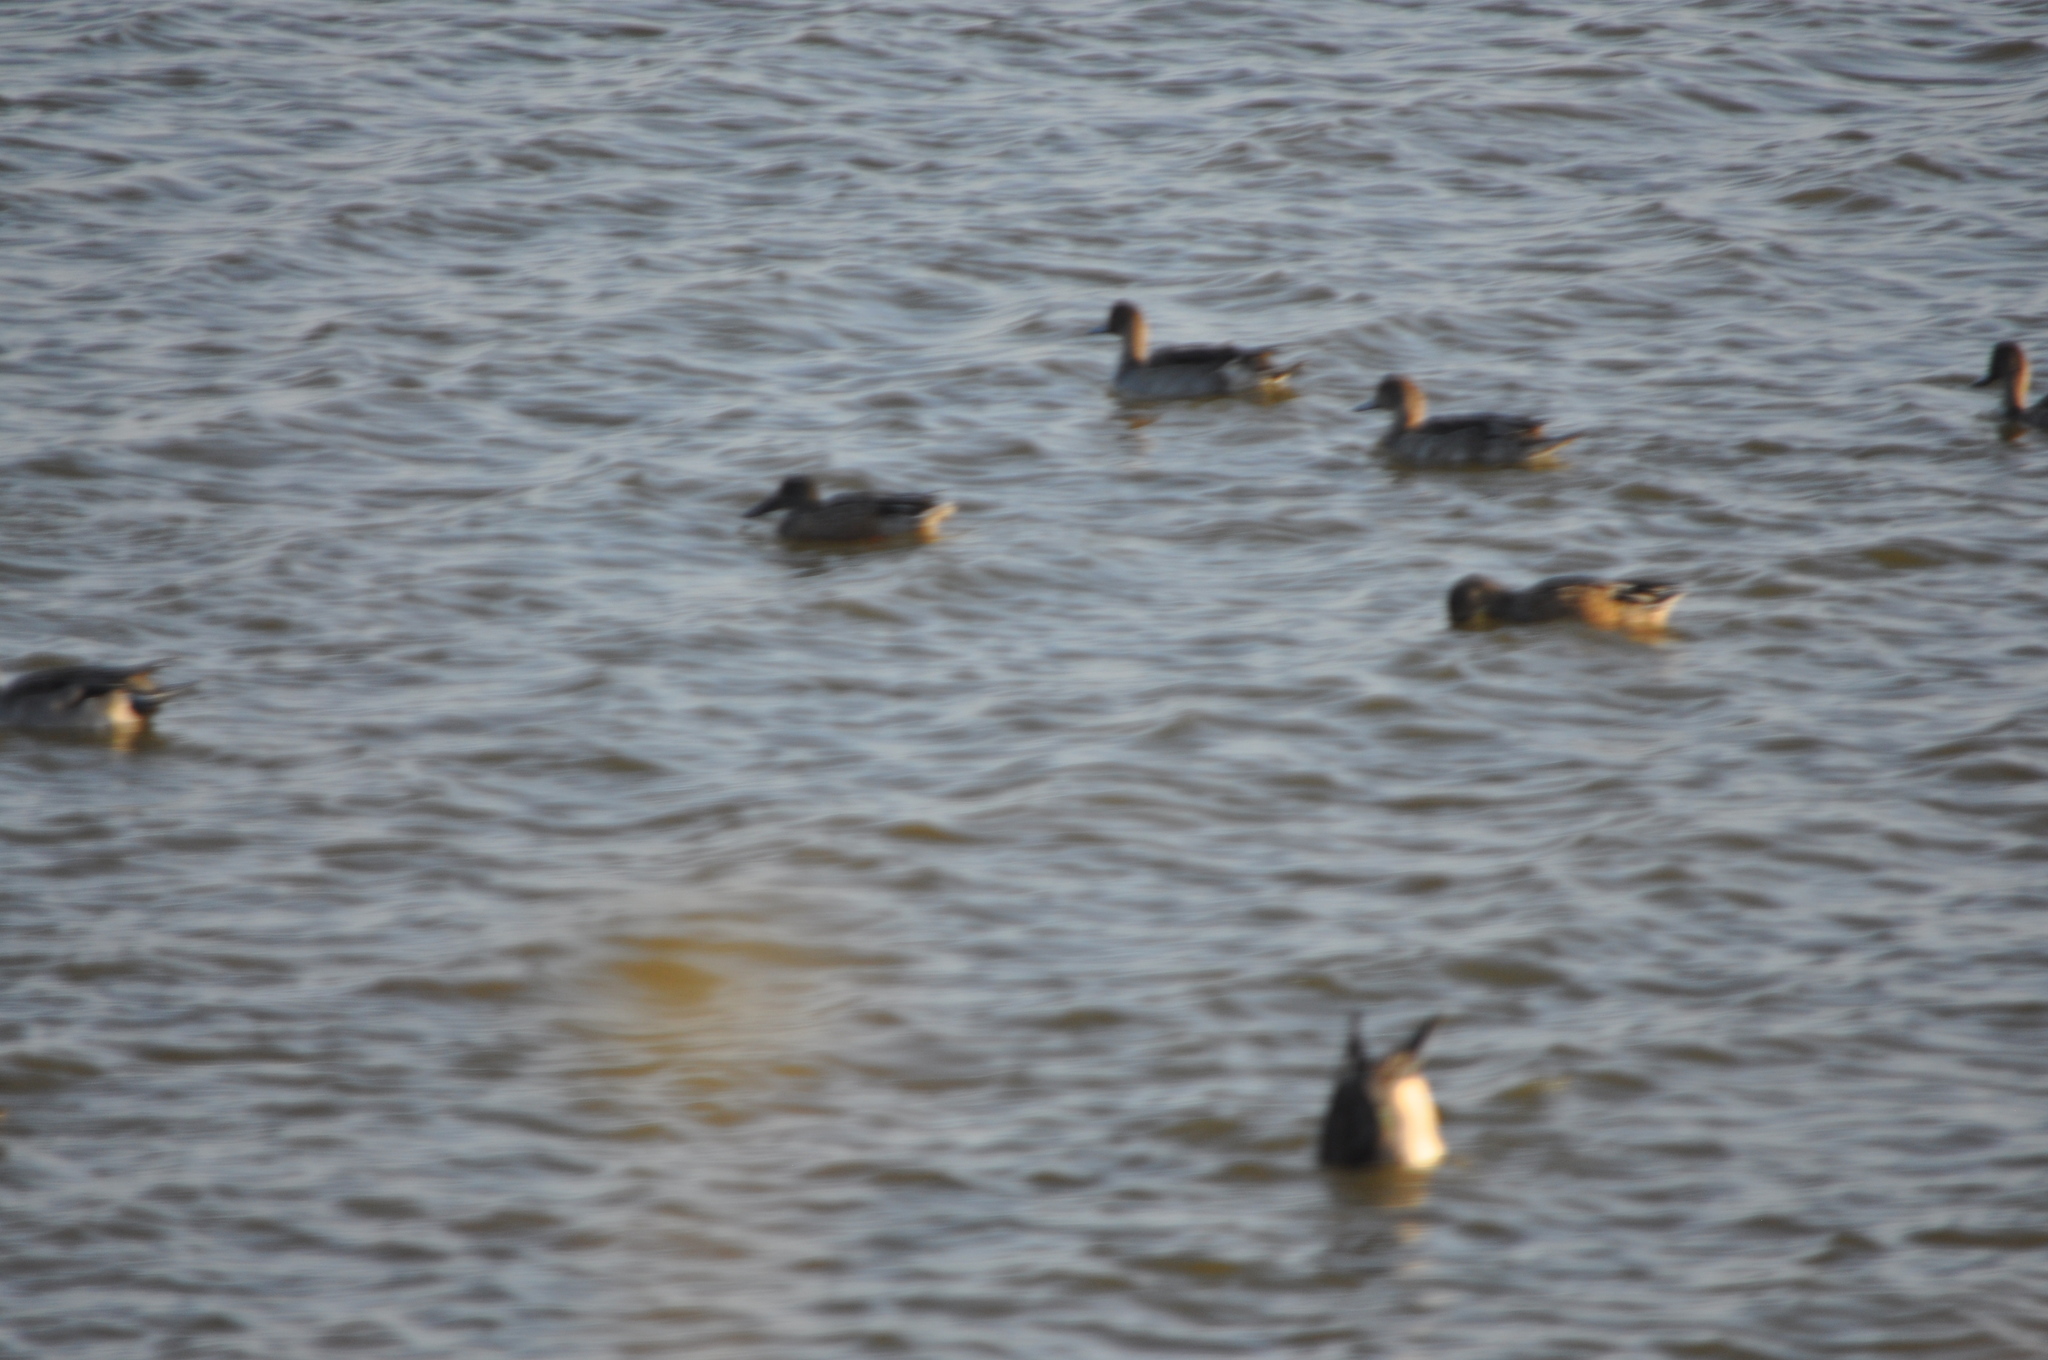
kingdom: Animalia
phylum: Chordata
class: Aves
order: Anseriformes
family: Anatidae
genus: Anas
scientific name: Anas acuta
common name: Northern pintail
